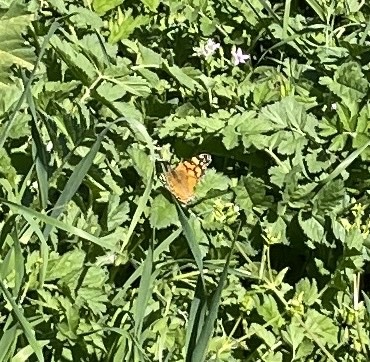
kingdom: Animalia
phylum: Arthropoda
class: Insecta
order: Lepidoptera
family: Nymphalidae
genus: Vanessa
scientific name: Vanessa annabella
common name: West coast lady
